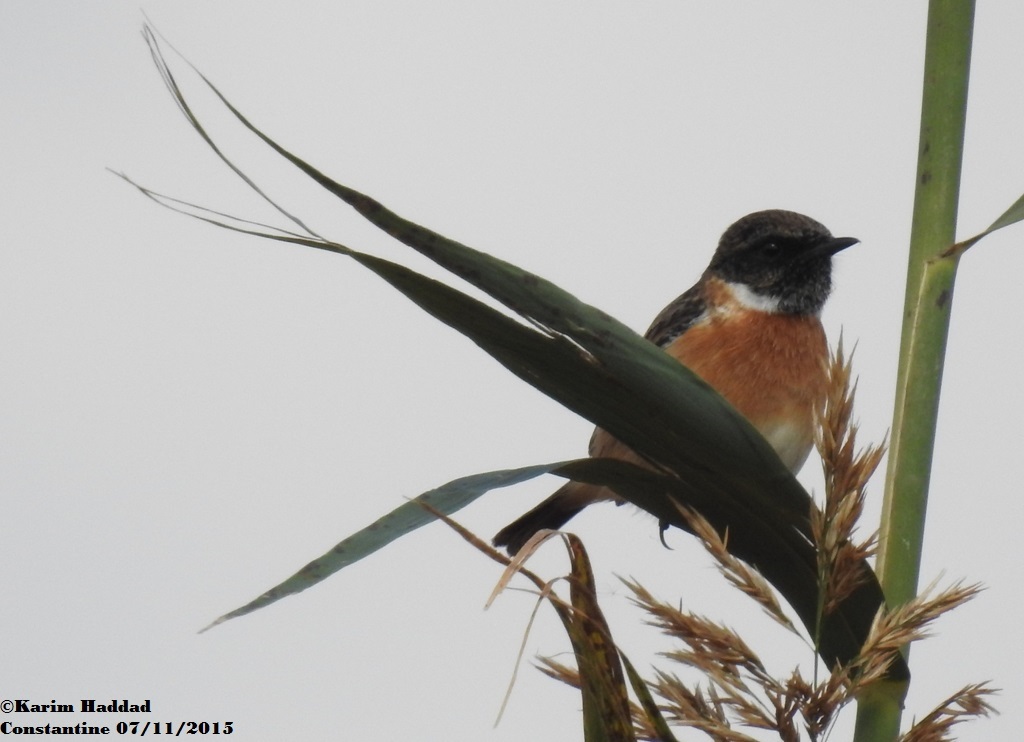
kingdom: Animalia
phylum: Chordata
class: Aves
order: Passeriformes
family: Muscicapidae
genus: Saxicola
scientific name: Saxicola rubicola
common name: European stonechat
